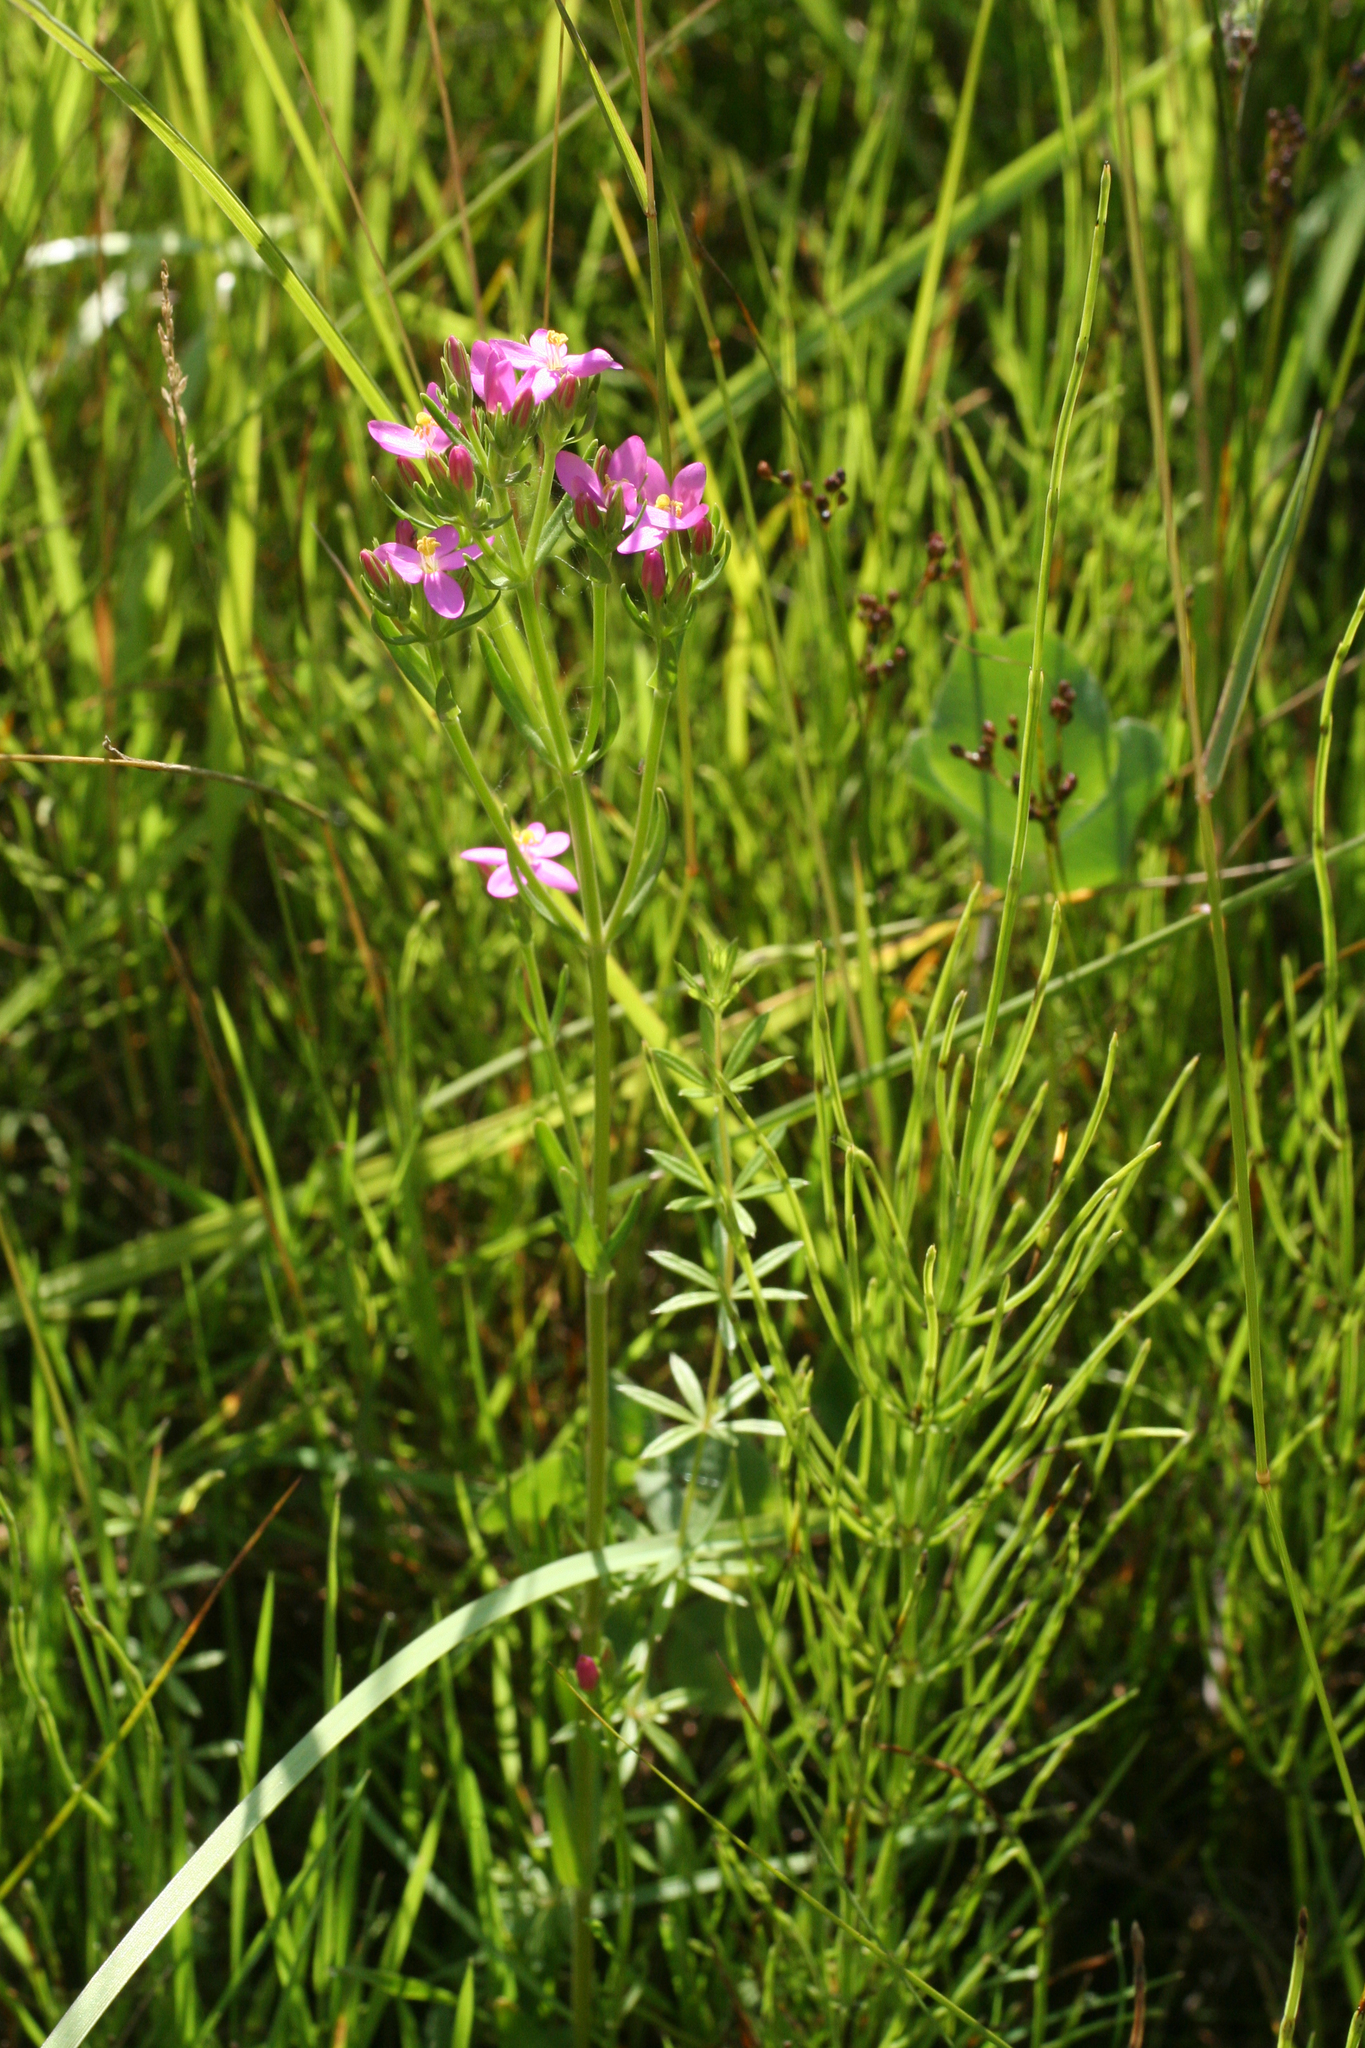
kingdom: Plantae
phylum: Tracheophyta
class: Magnoliopsida
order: Gentianales
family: Gentianaceae
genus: Centaurium
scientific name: Centaurium pulchellum
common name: Lesser centaury
